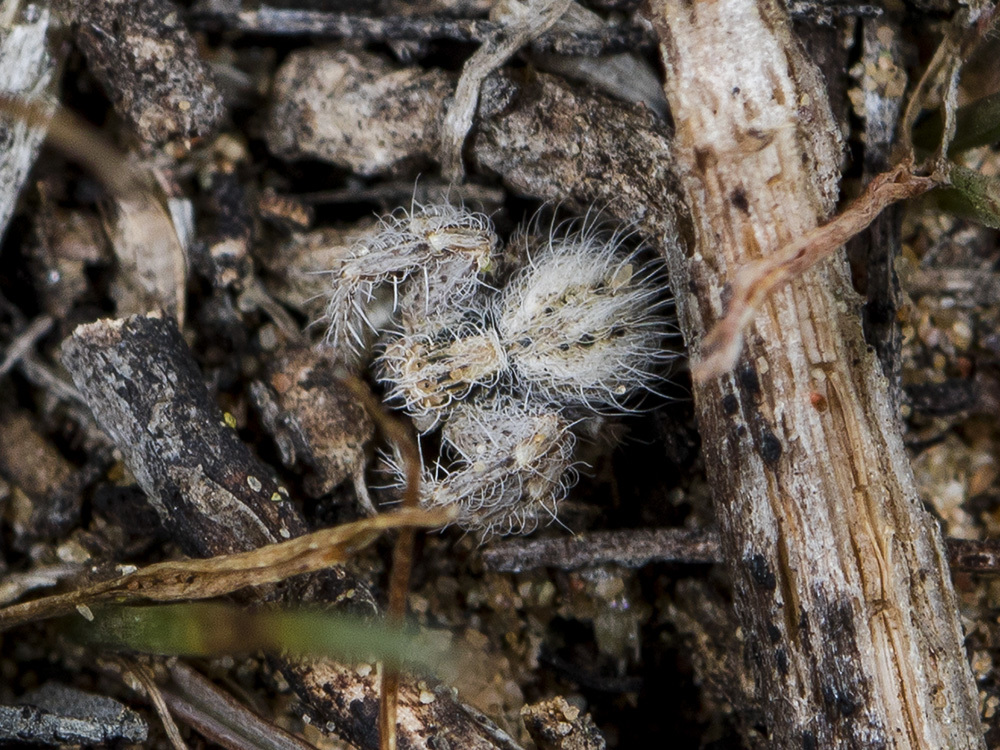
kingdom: Animalia
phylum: Arthropoda
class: Arachnida
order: Araneae
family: Thomisidae
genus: Heriaeus
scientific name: Heriaeus horridus
